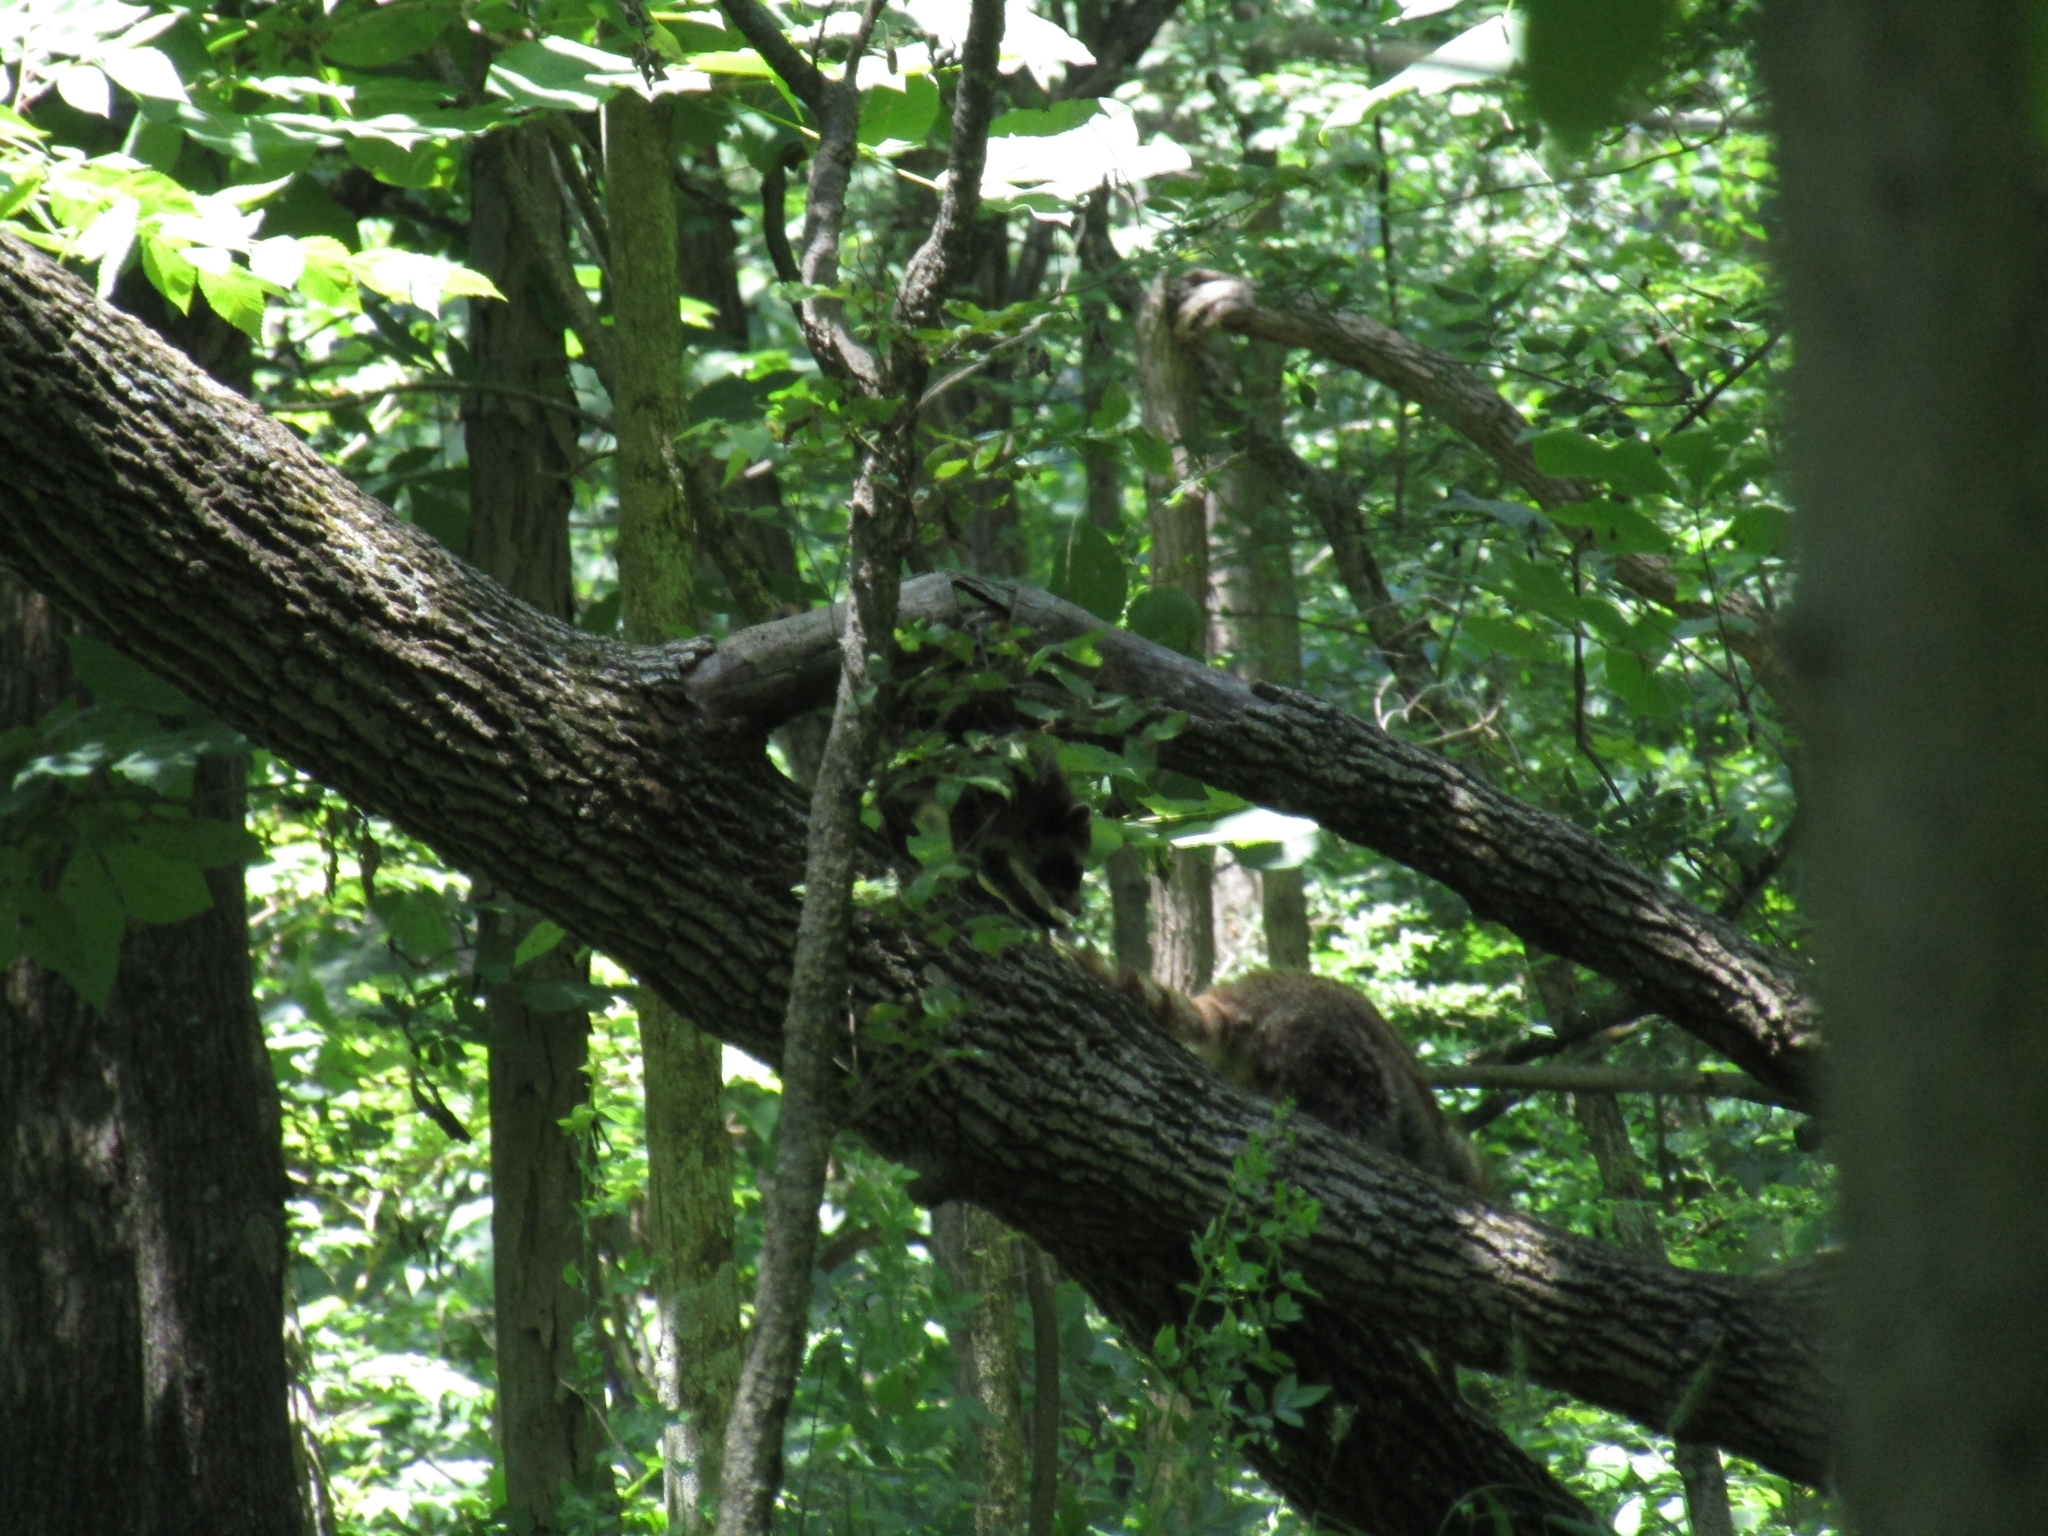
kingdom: Animalia
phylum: Chordata
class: Mammalia
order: Carnivora
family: Procyonidae
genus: Procyon
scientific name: Procyon lotor
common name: Raccoon
